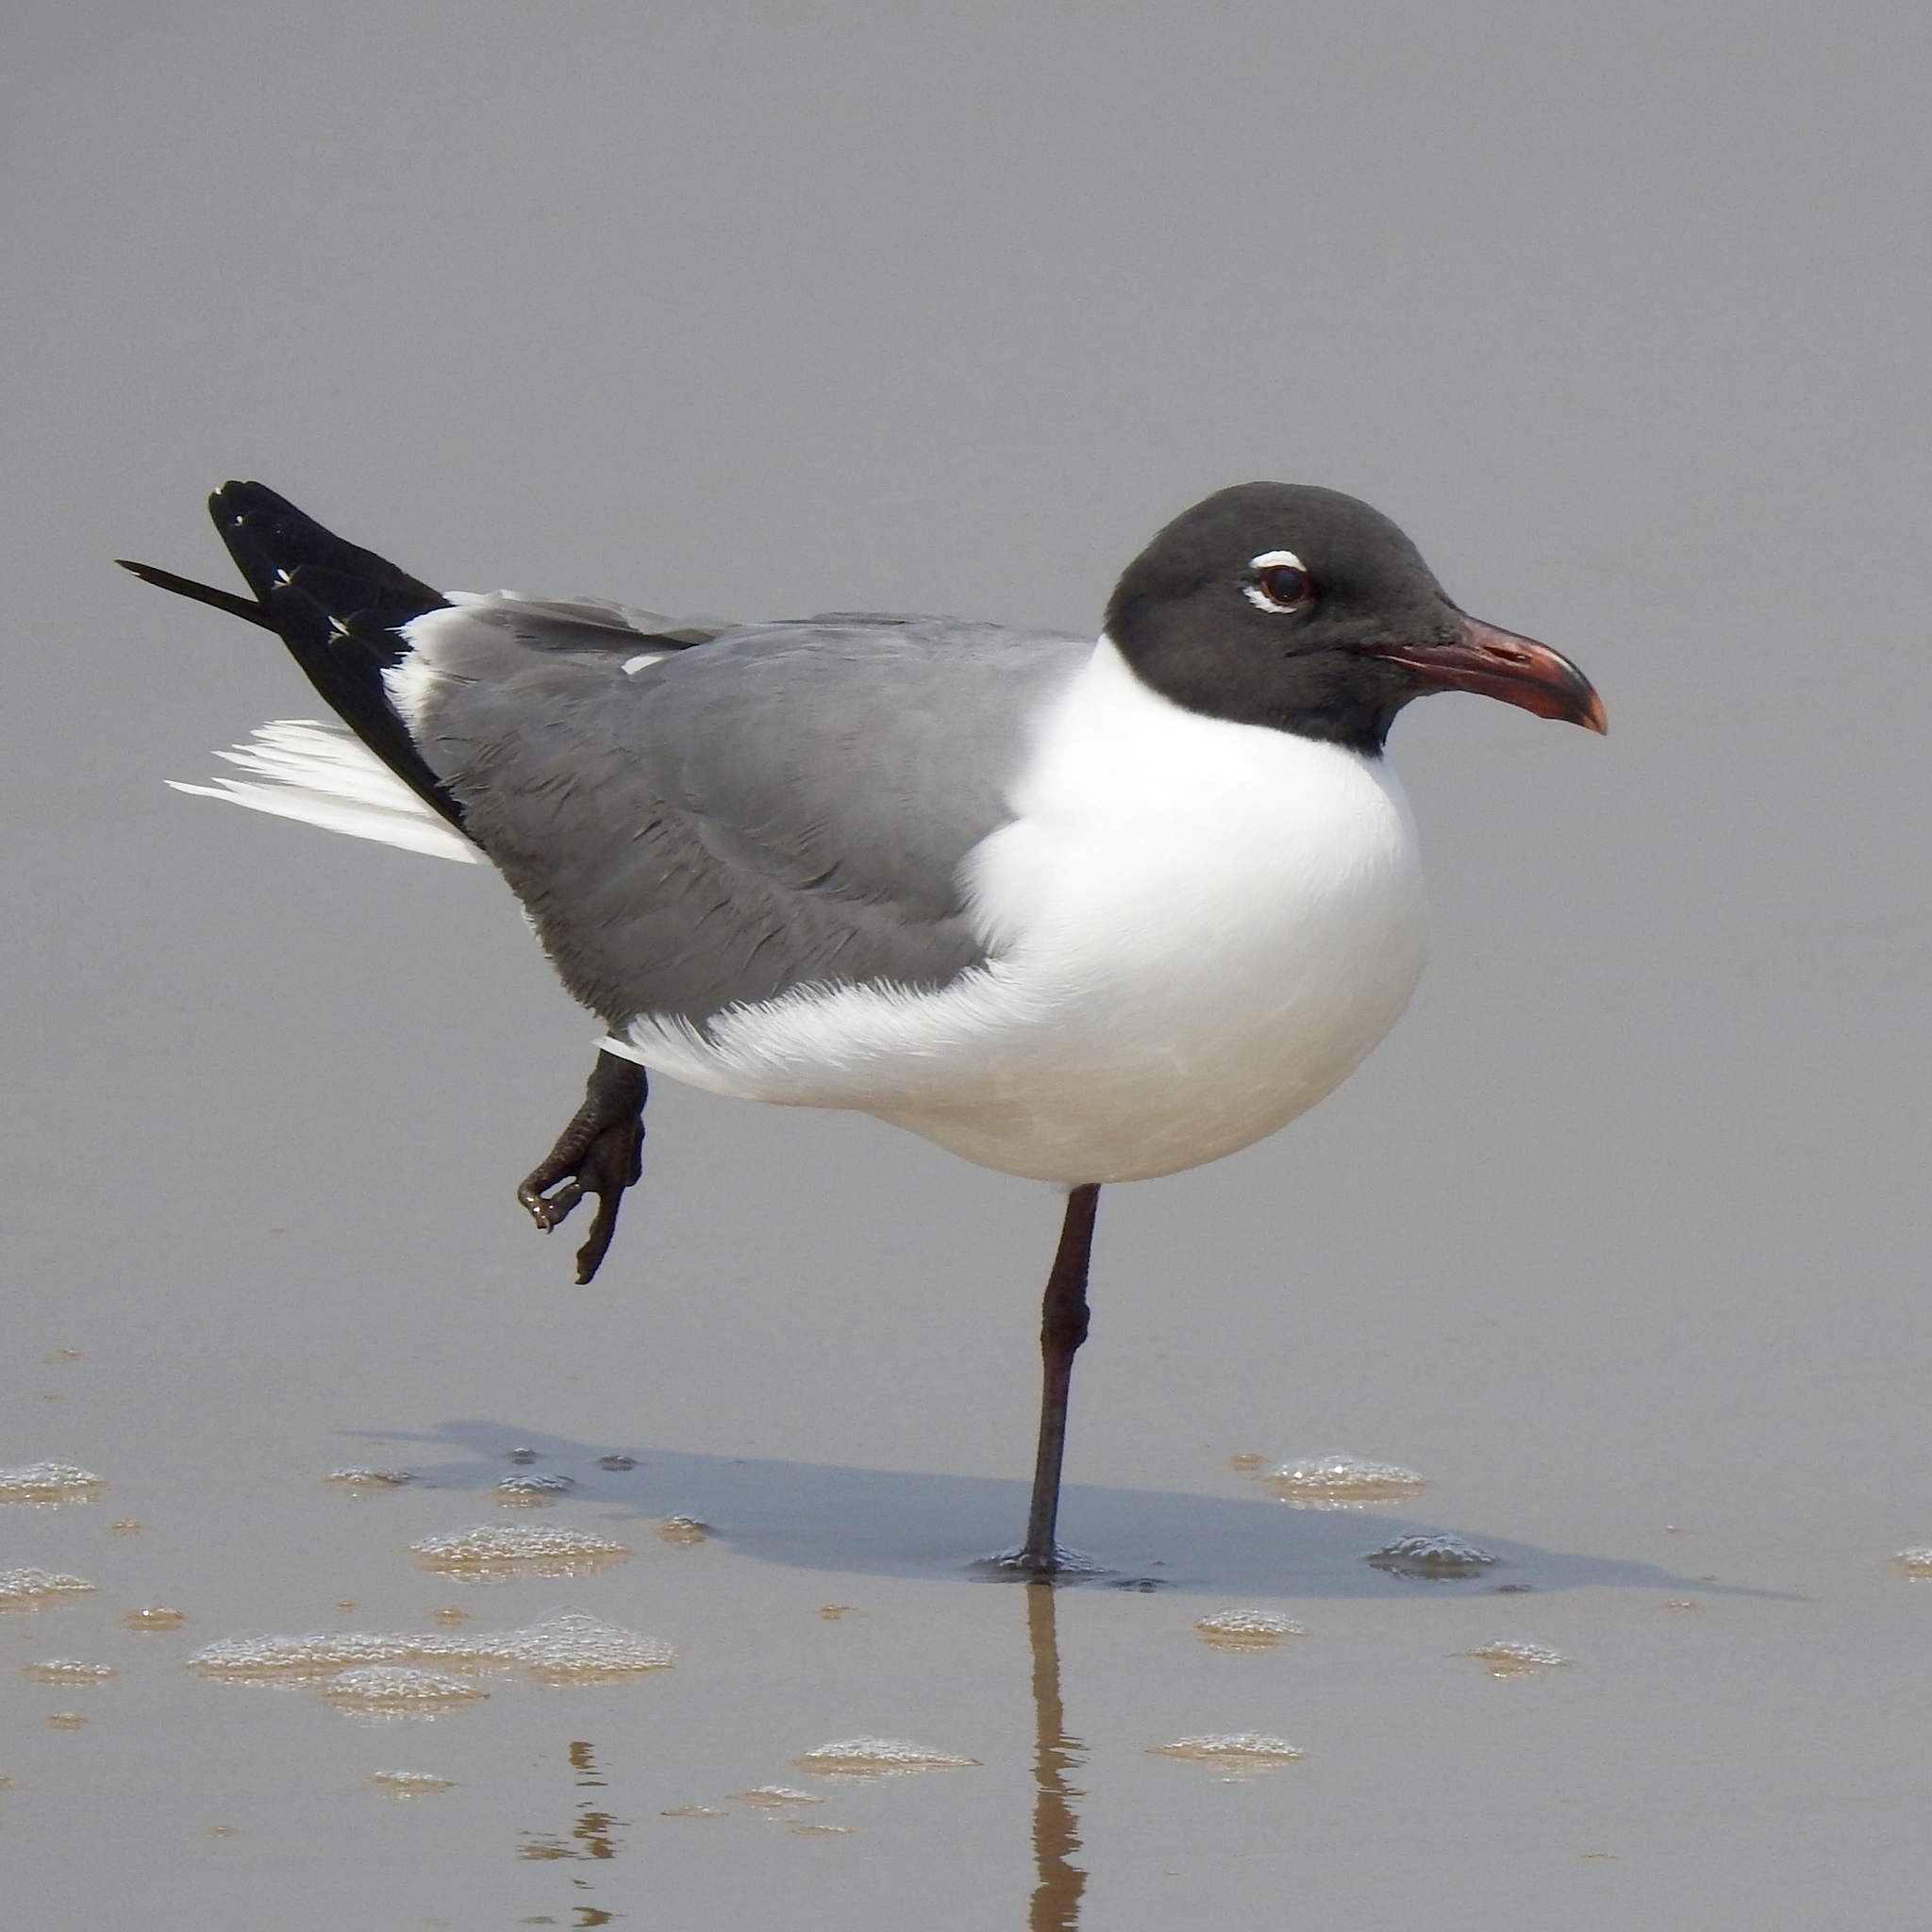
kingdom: Animalia
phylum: Chordata
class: Aves
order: Charadriiformes
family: Laridae
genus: Leucophaeus
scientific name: Leucophaeus atricilla
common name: Laughing gull
